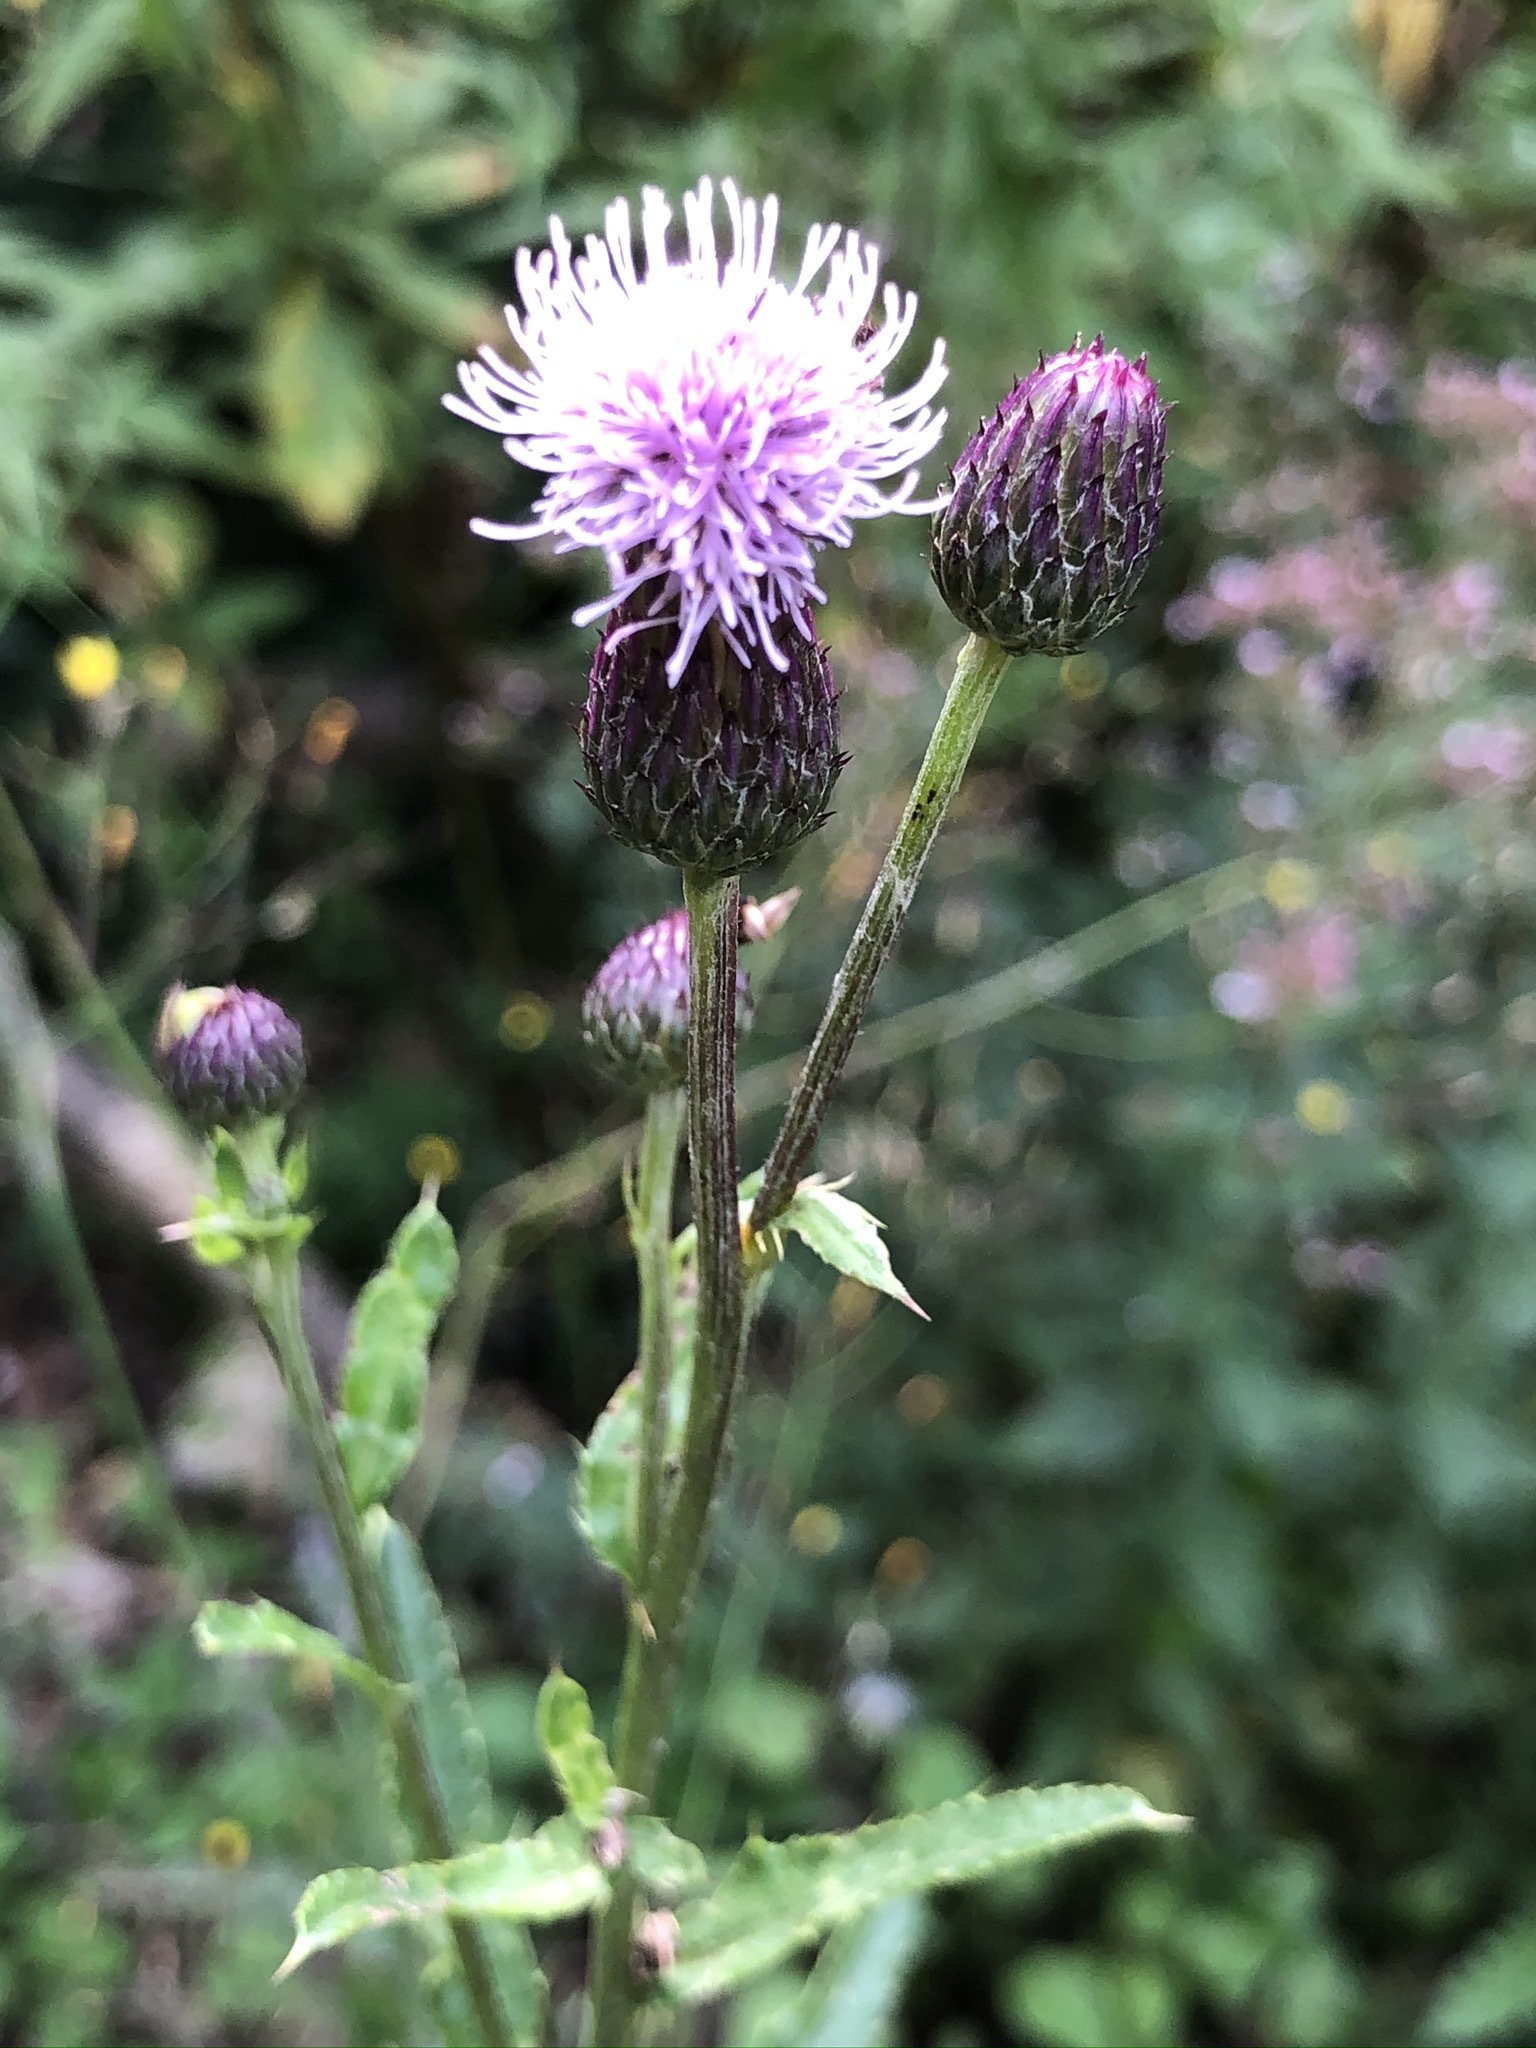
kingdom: Plantae
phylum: Tracheophyta
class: Magnoliopsida
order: Asterales
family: Asteraceae
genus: Cirsium
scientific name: Cirsium arvense
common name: Creeping thistle
